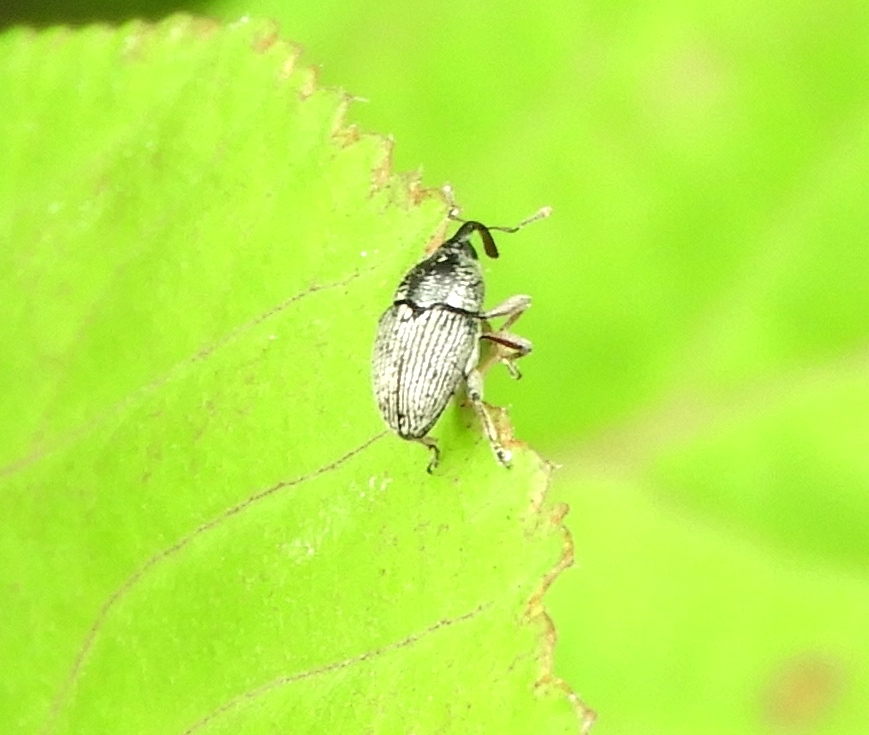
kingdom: Animalia
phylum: Arthropoda
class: Insecta
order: Coleoptera
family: Curculionidae
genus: Baridinae
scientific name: Baridinae
